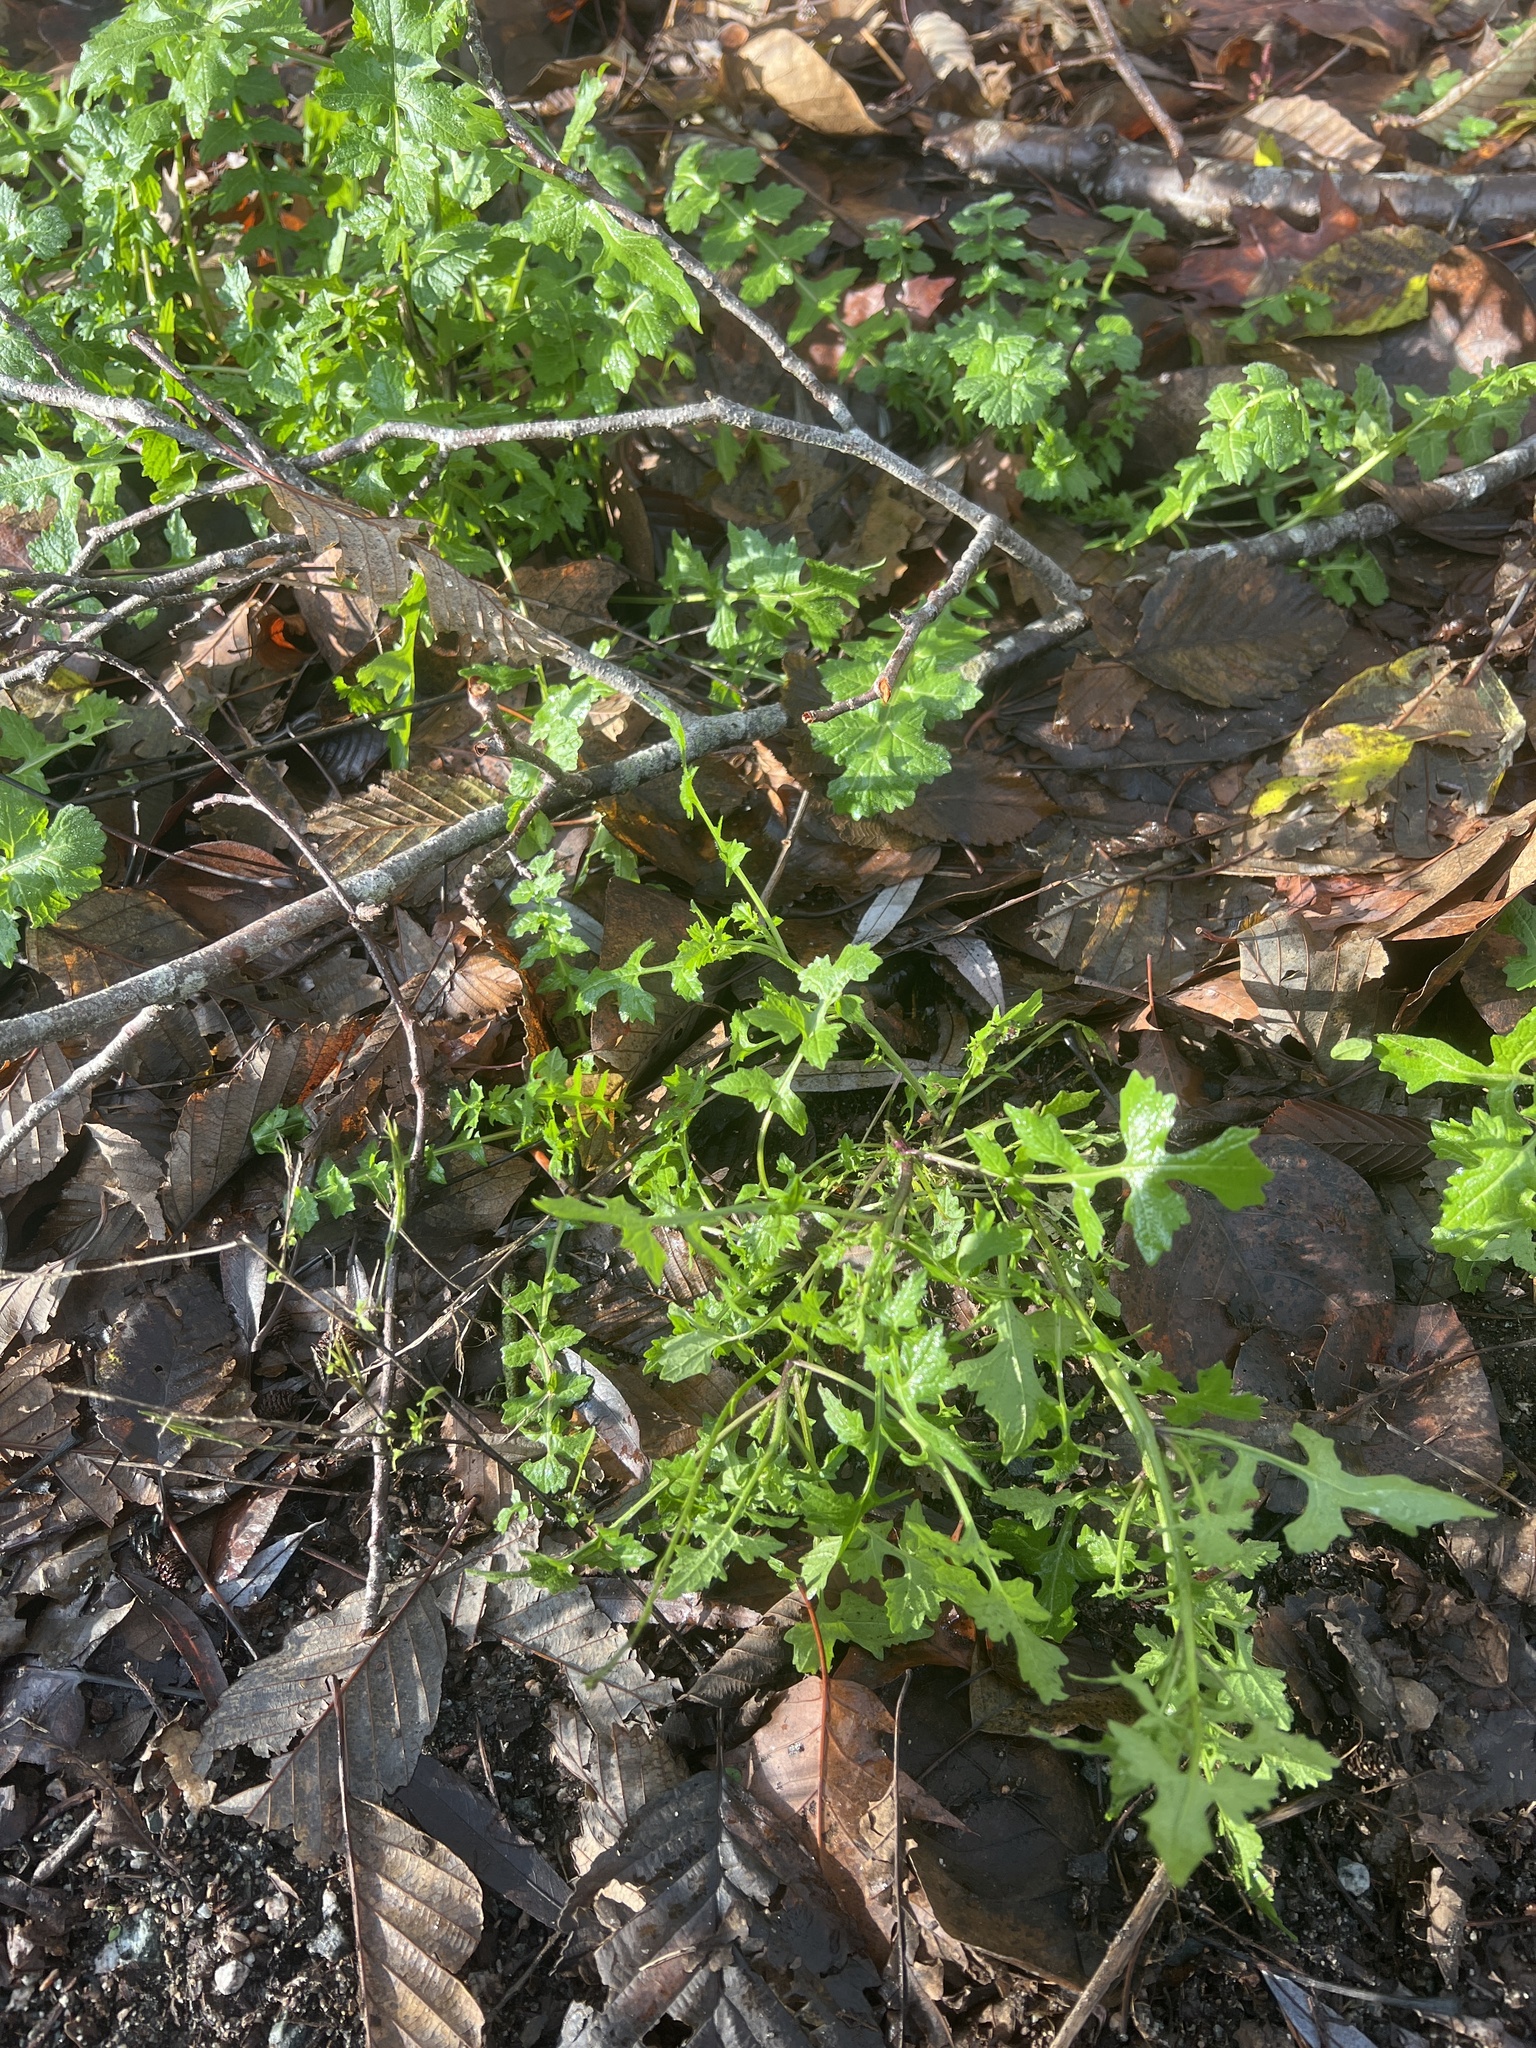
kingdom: Plantae
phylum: Tracheophyta
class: Magnoliopsida
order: Asterales
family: Asteraceae
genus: Mycelis
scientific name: Mycelis muralis
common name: Wall lettuce
